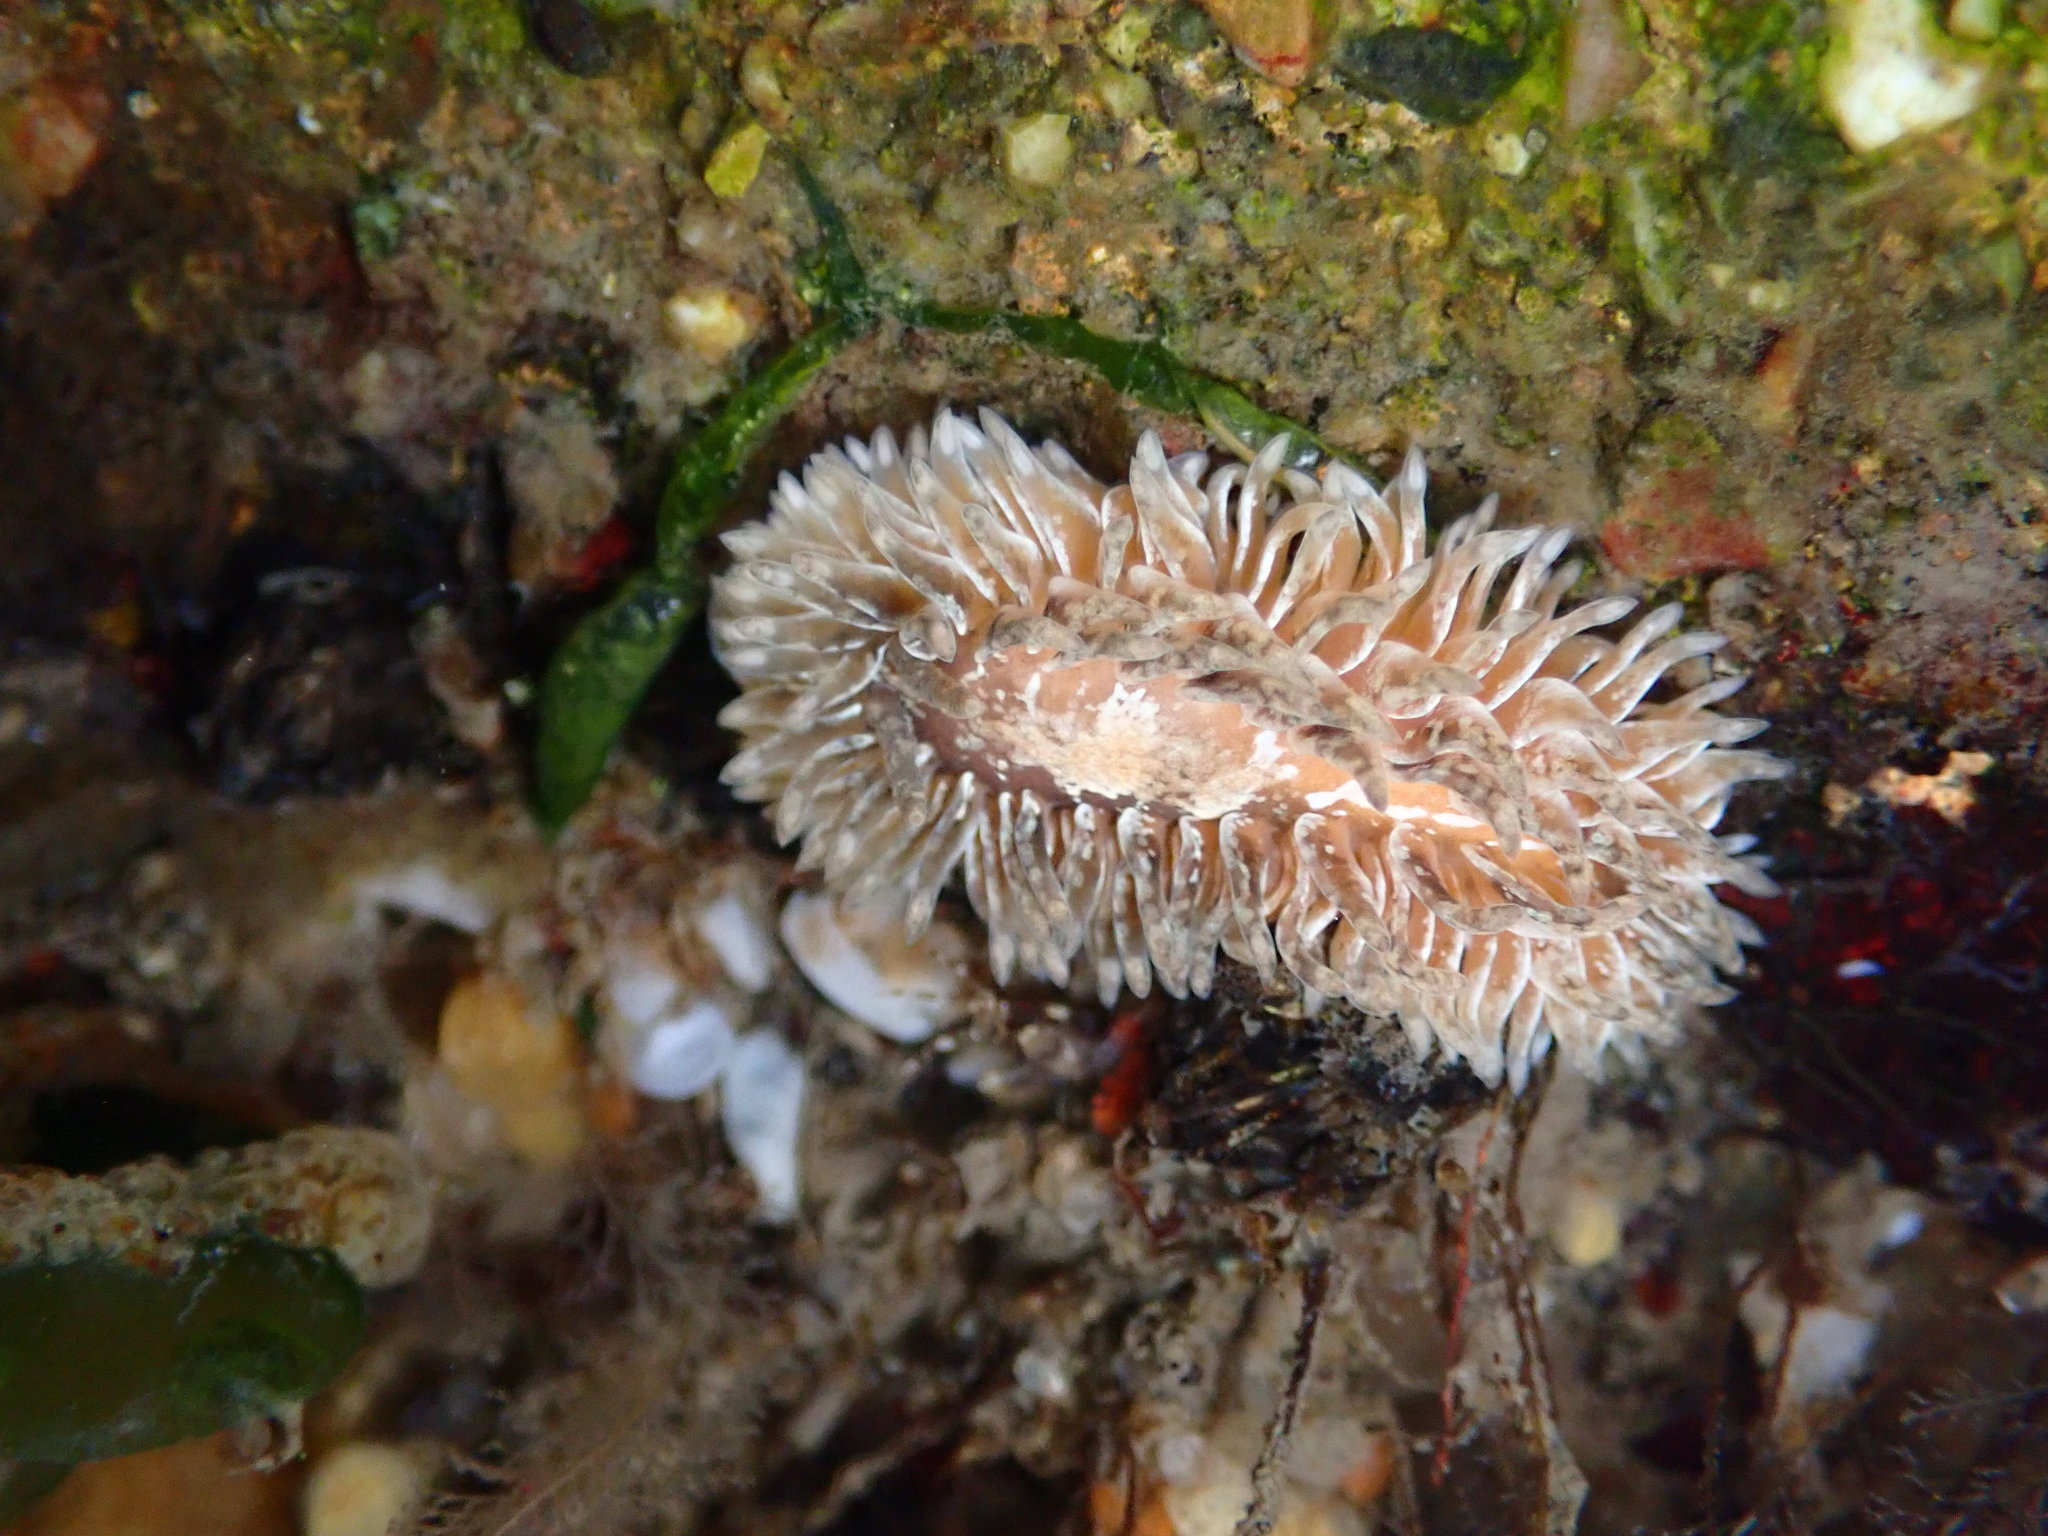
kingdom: Animalia
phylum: Mollusca
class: Gastropoda
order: Nudibranchia
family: Aeolidiidae
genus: Aeolidia
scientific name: Aeolidia loui
